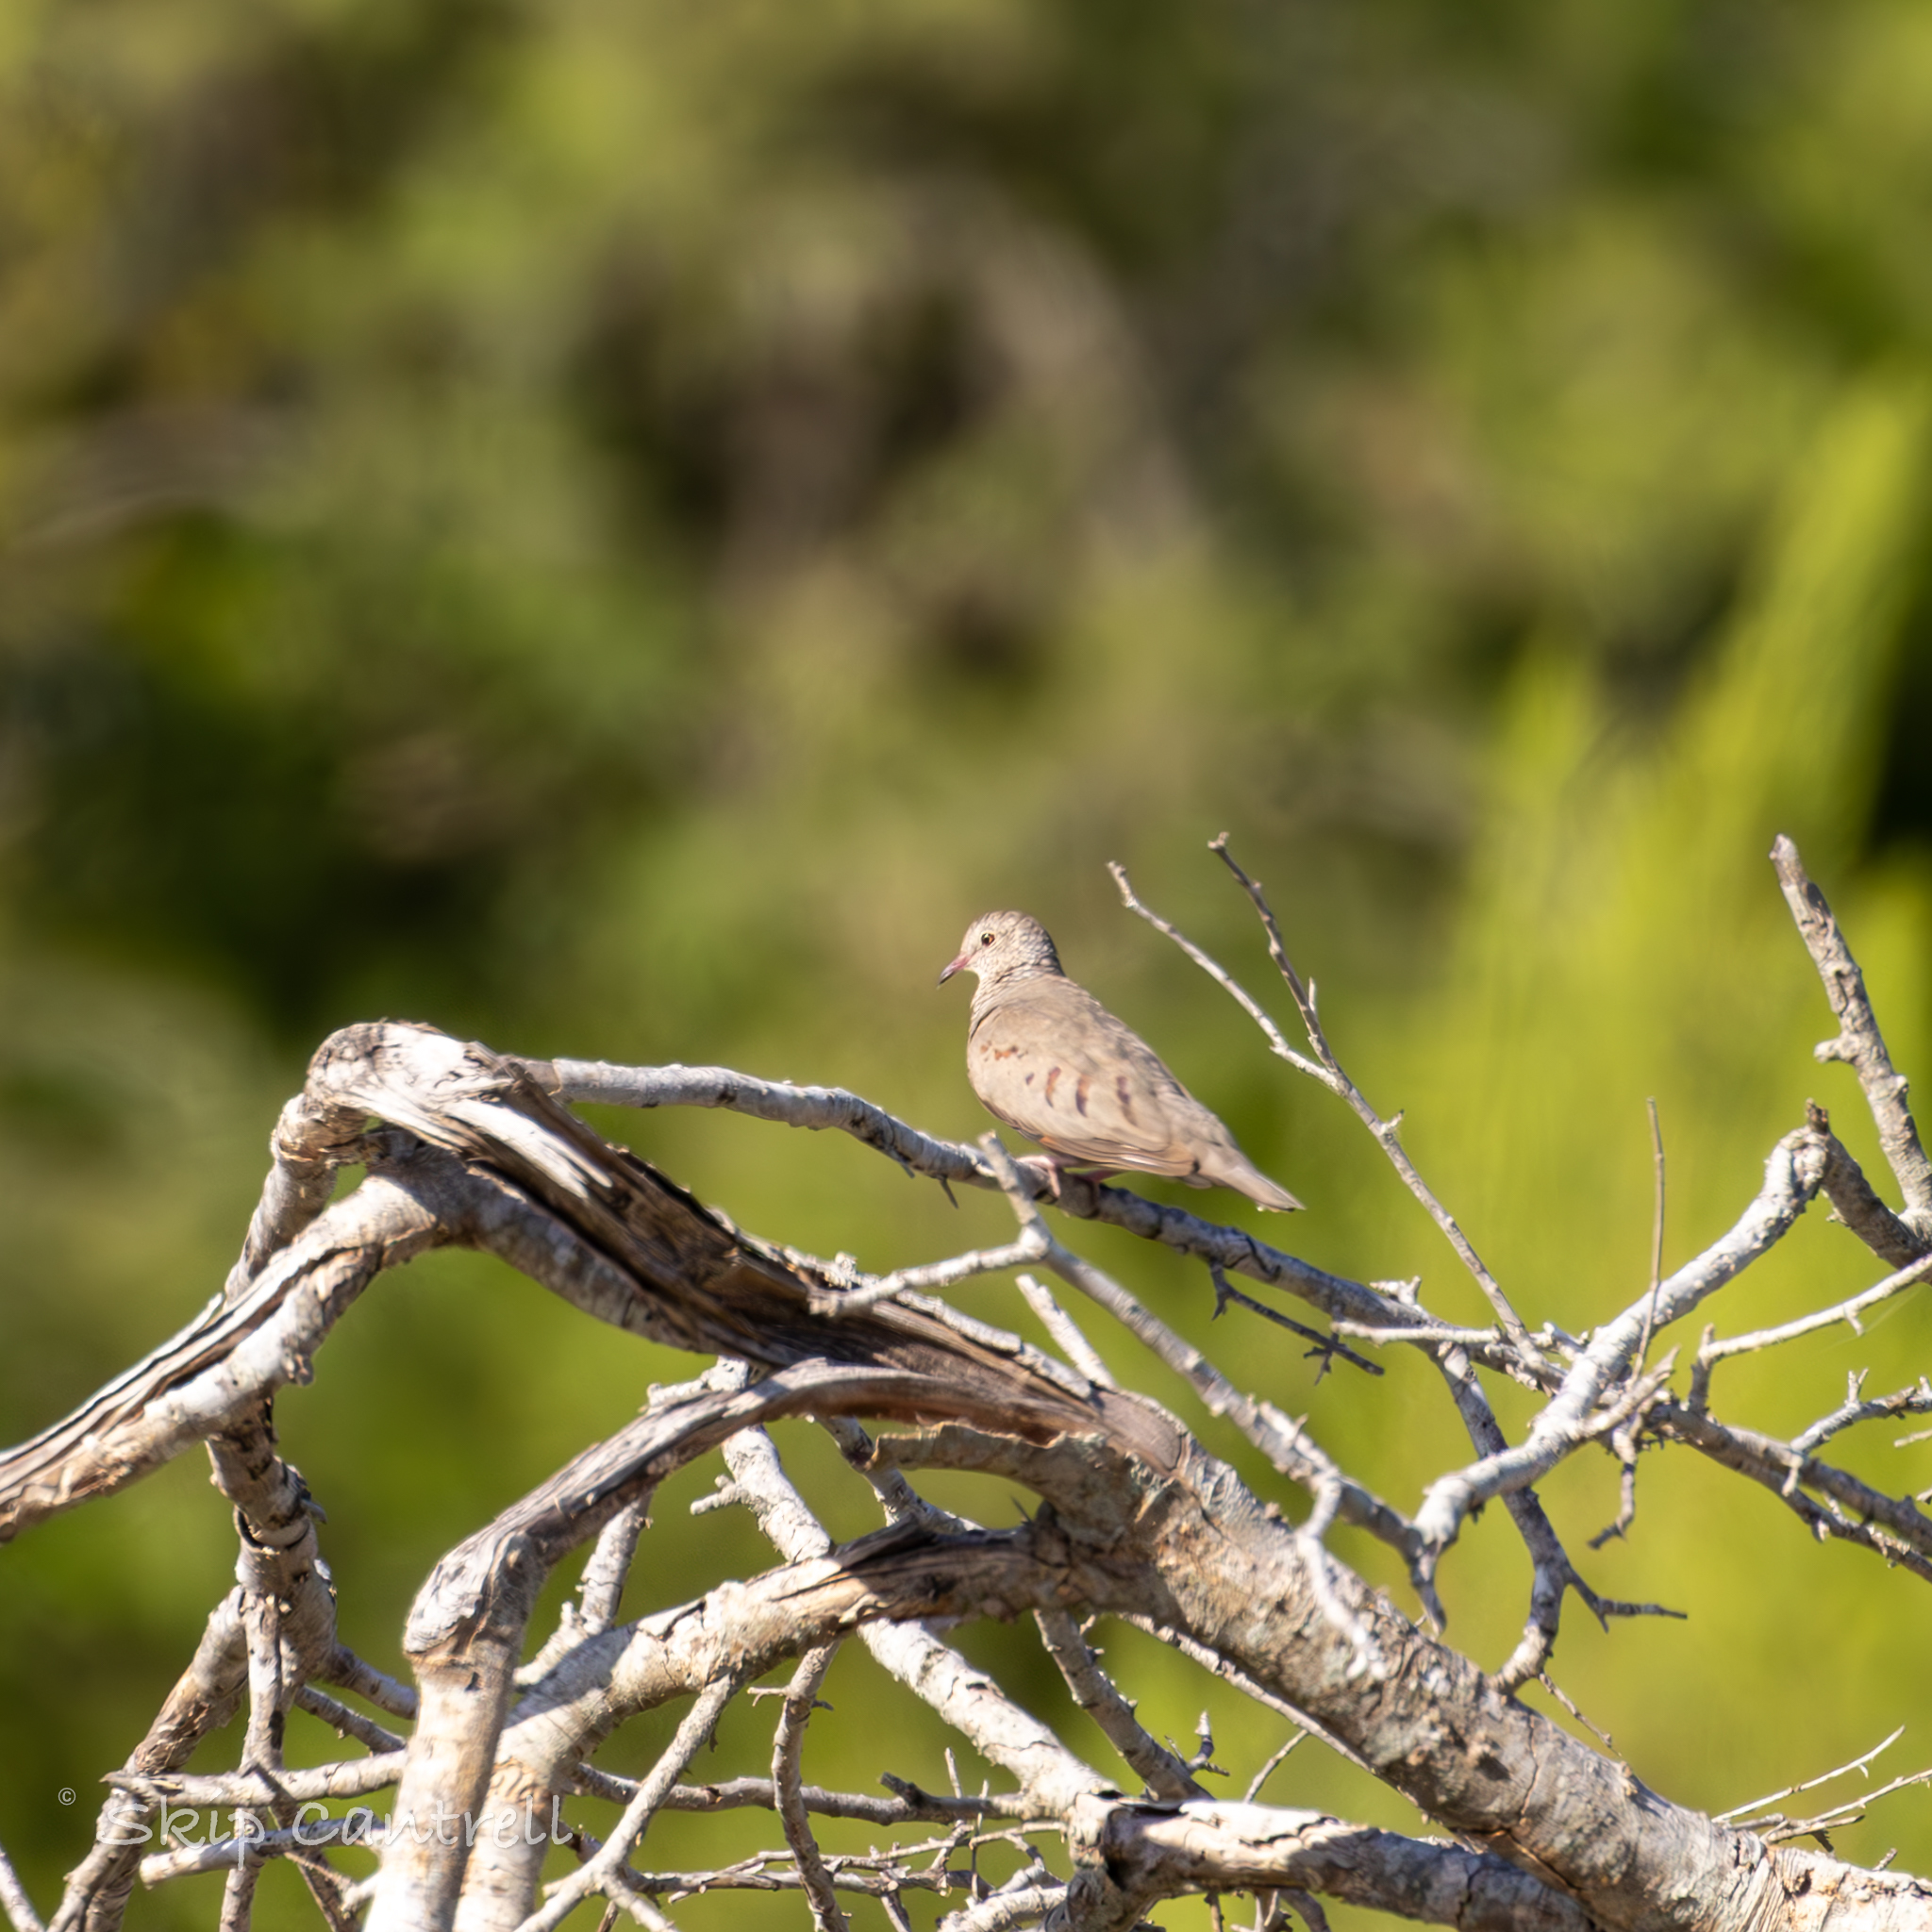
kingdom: Animalia
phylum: Chordata
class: Aves
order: Columbiformes
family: Columbidae
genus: Columbina
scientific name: Columbina passerina
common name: Common ground-dove
